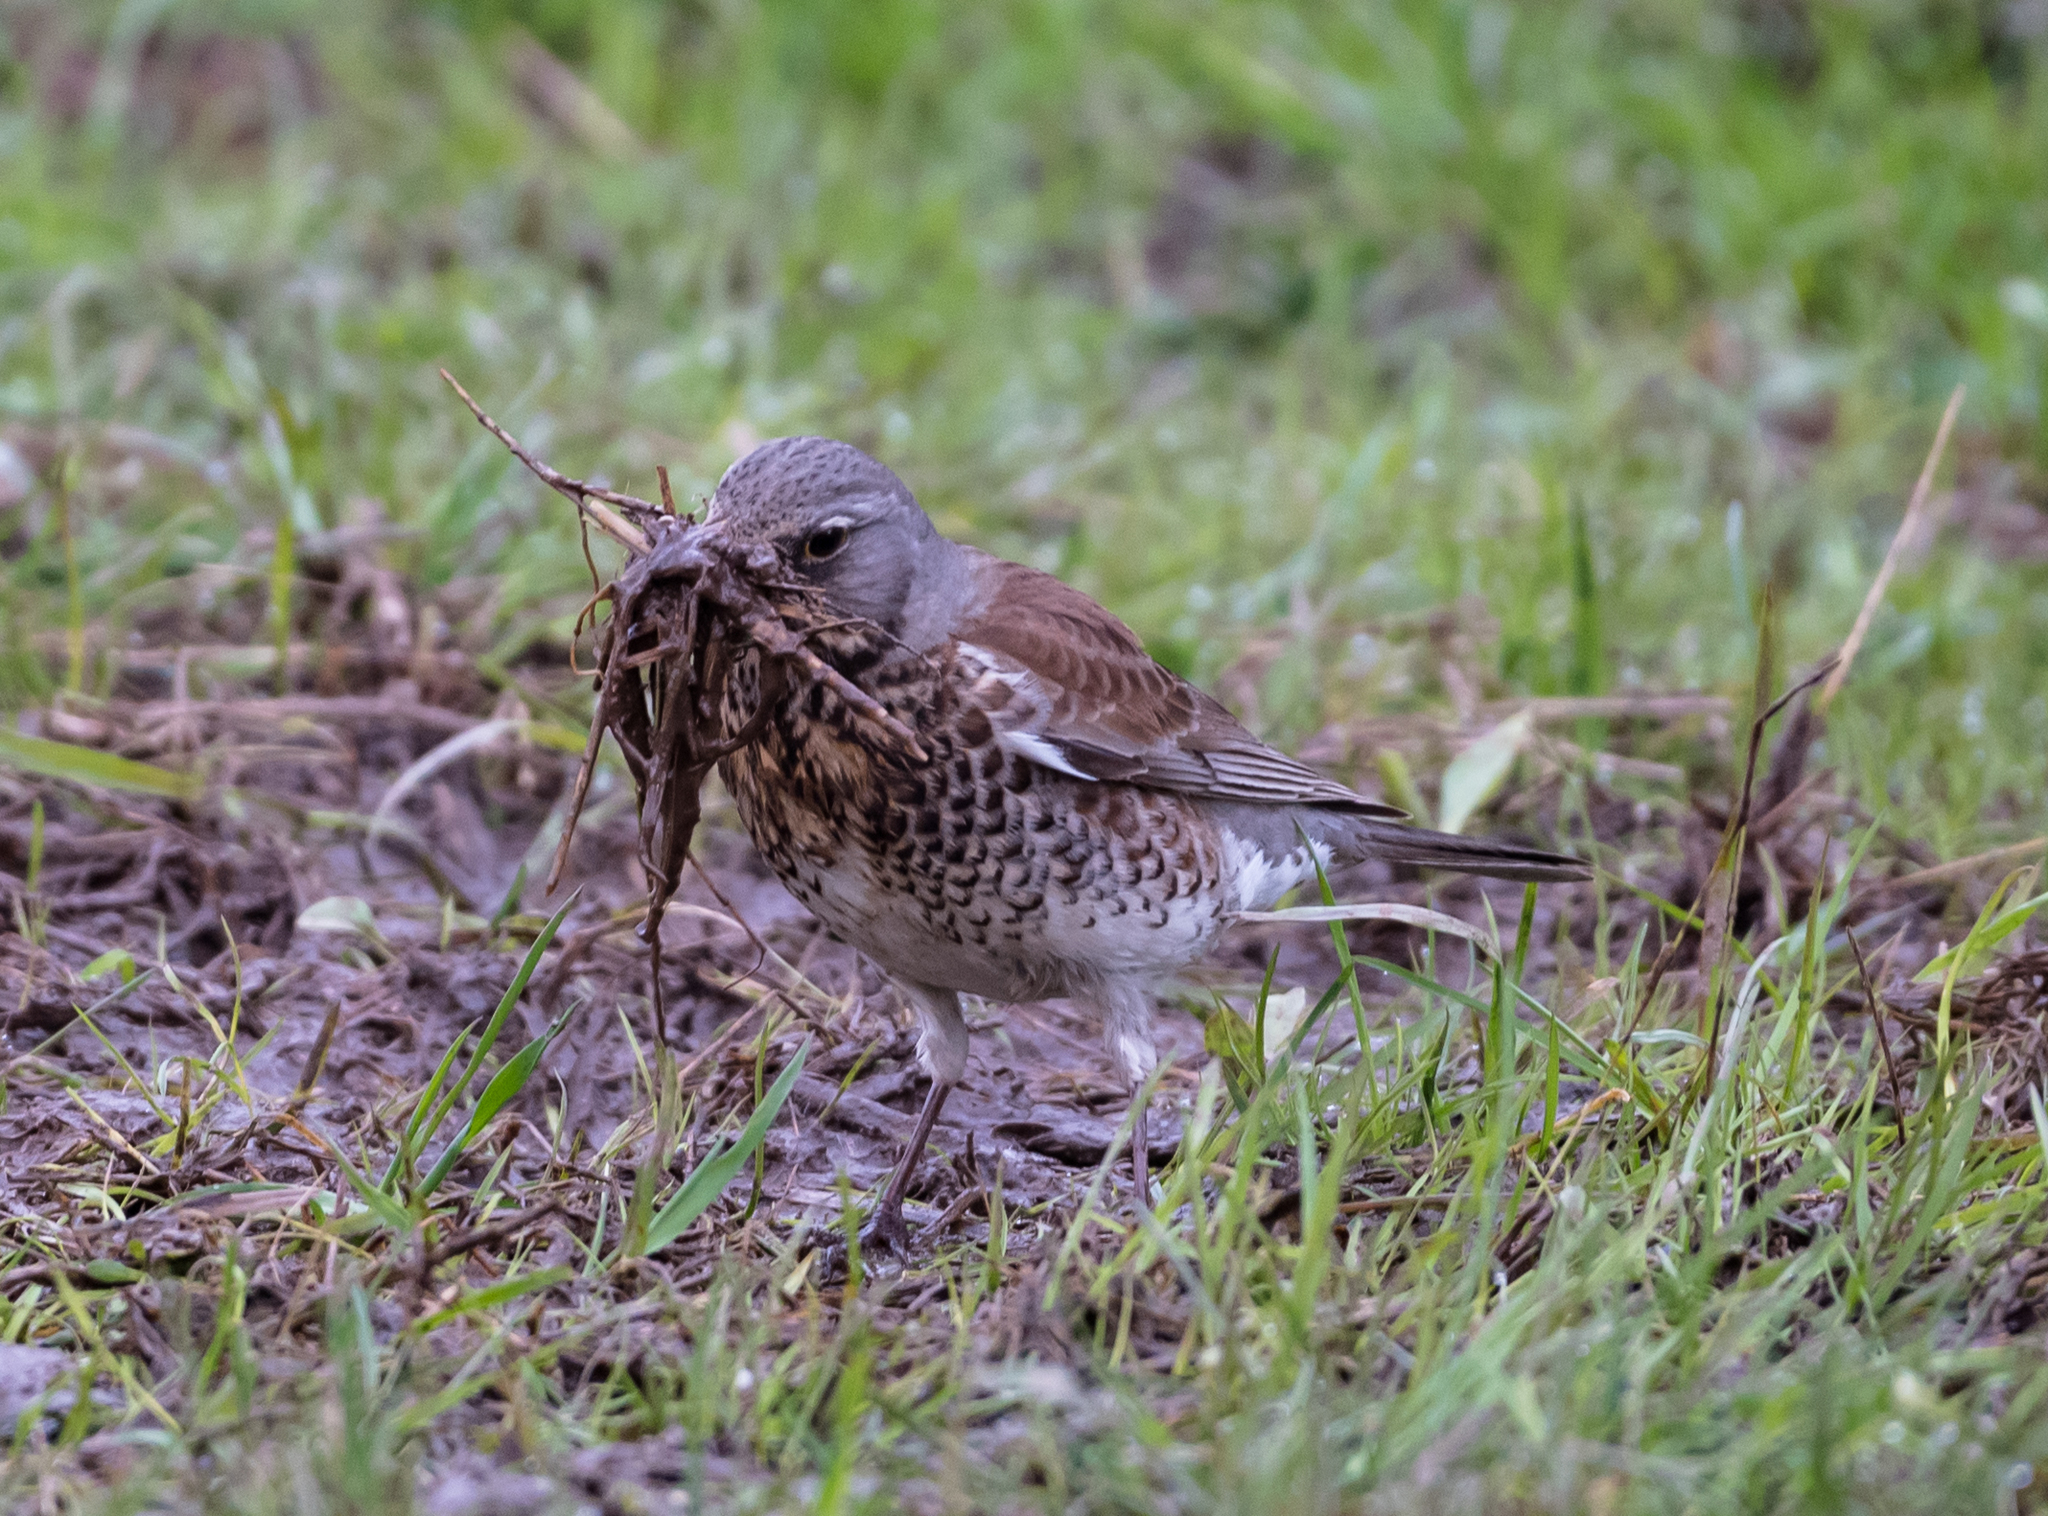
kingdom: Animalia
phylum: Chordata
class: Aves
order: Passeriformes
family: Turdidae
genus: Turdus
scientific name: Turdus pilaris
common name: Fieldfare
